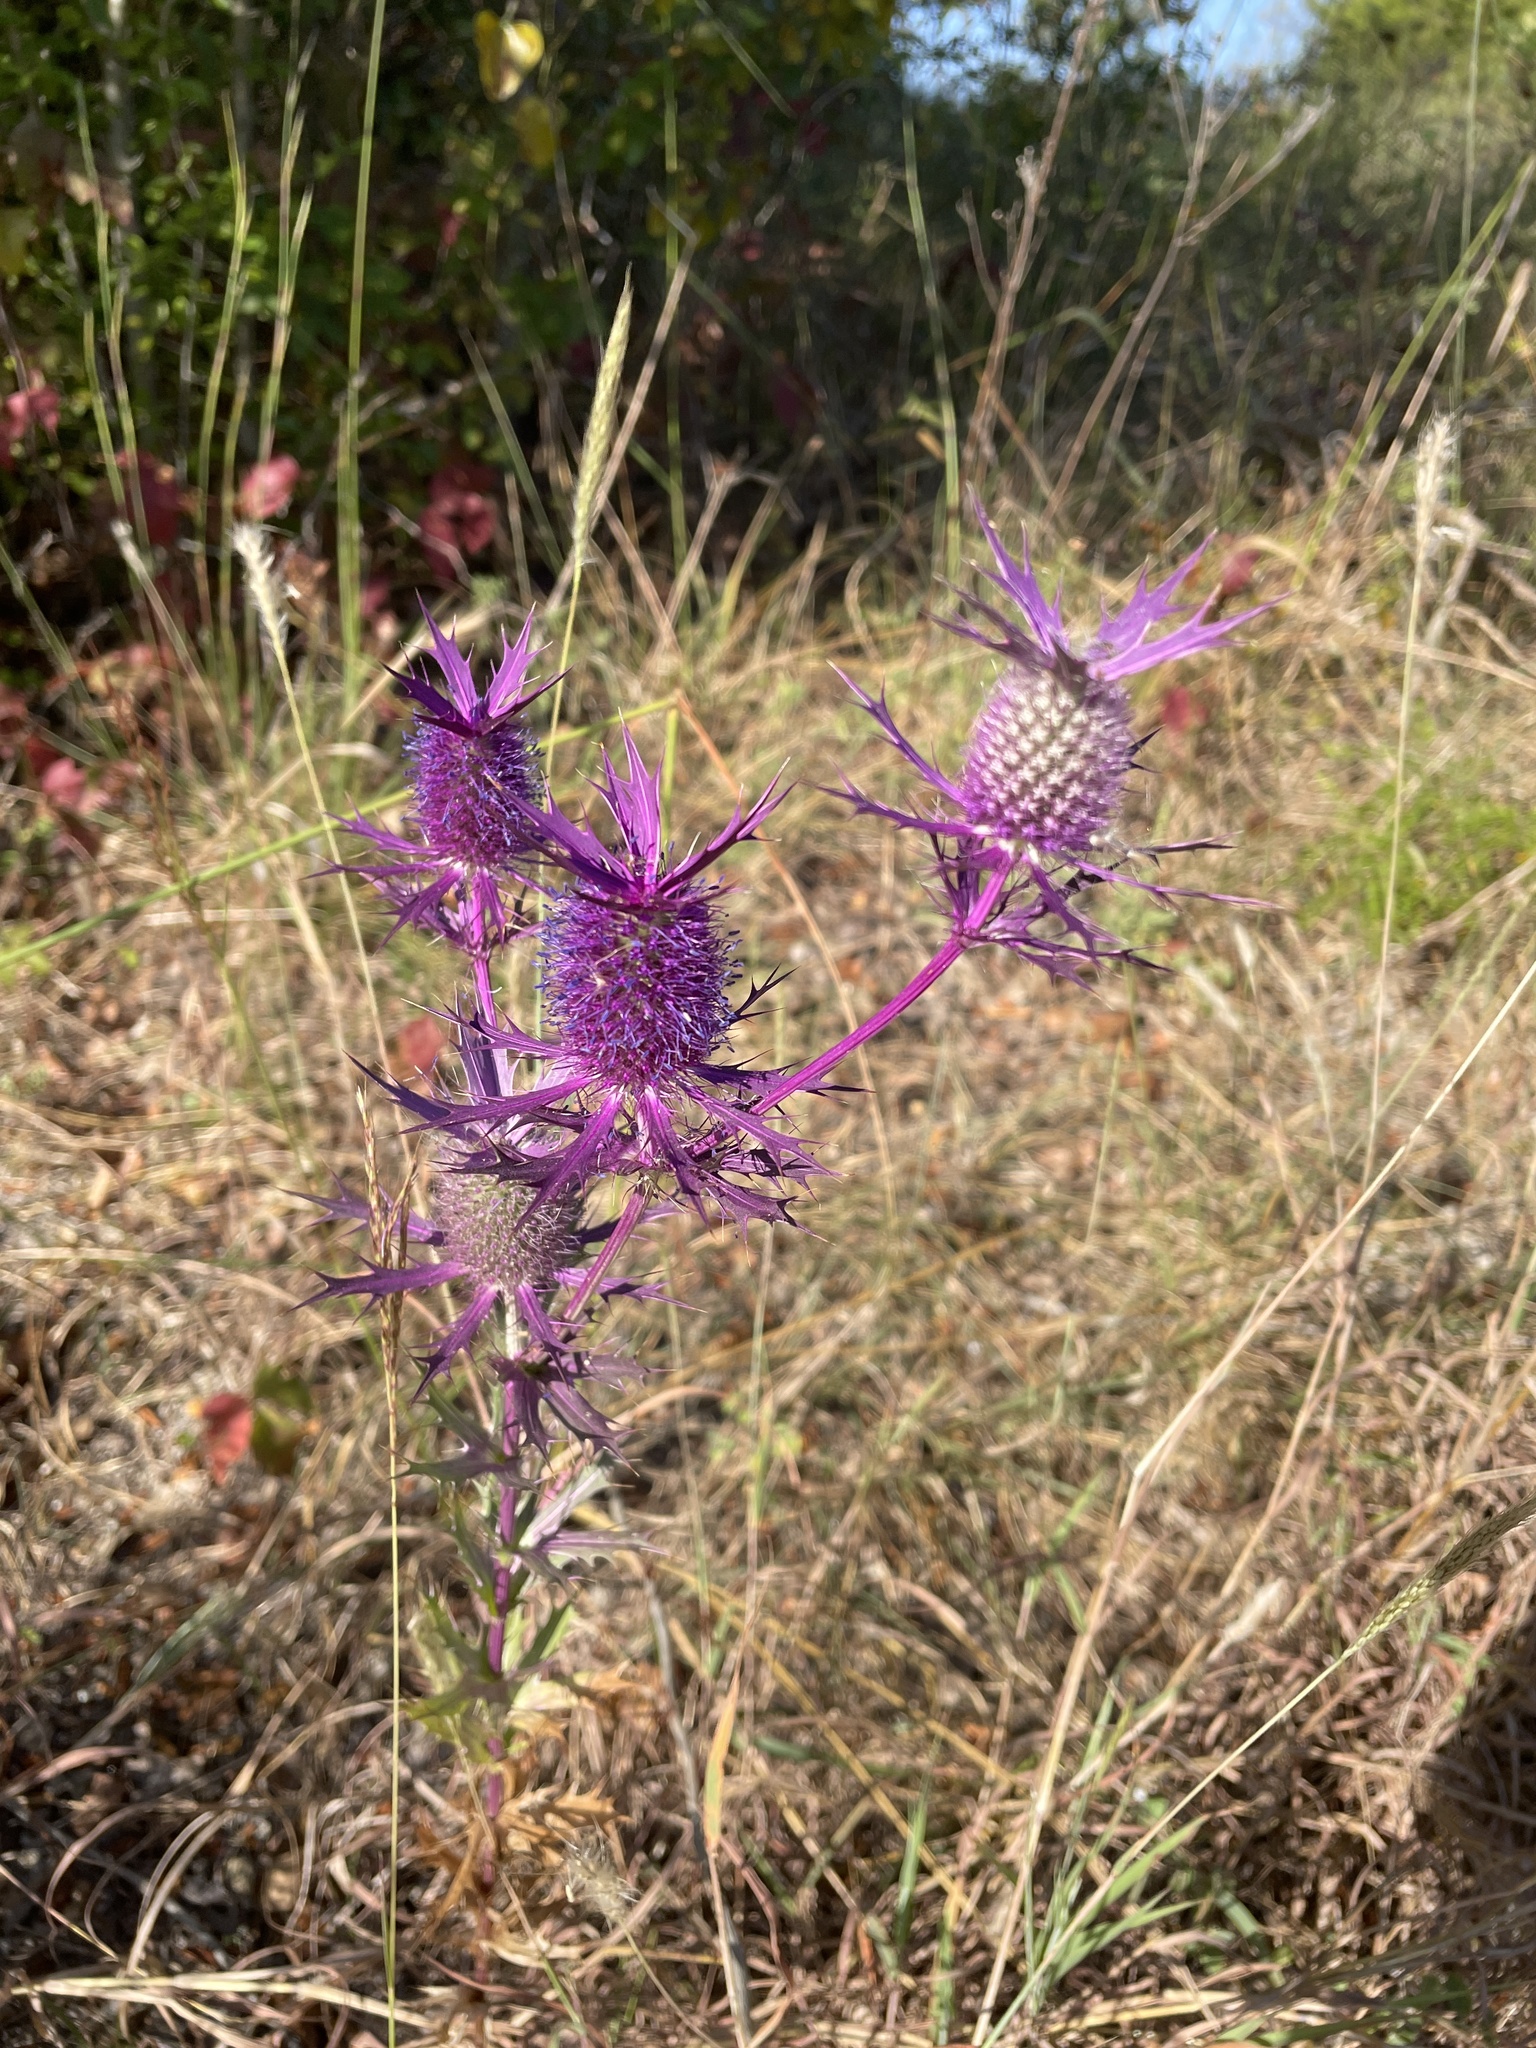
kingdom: Plantae
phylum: Tracheophyta
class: Magnoliopsida
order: Apiales
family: Apiaceae
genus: Eryngium
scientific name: Eryngium leavenworthii
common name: Leavenworth's eryngo
